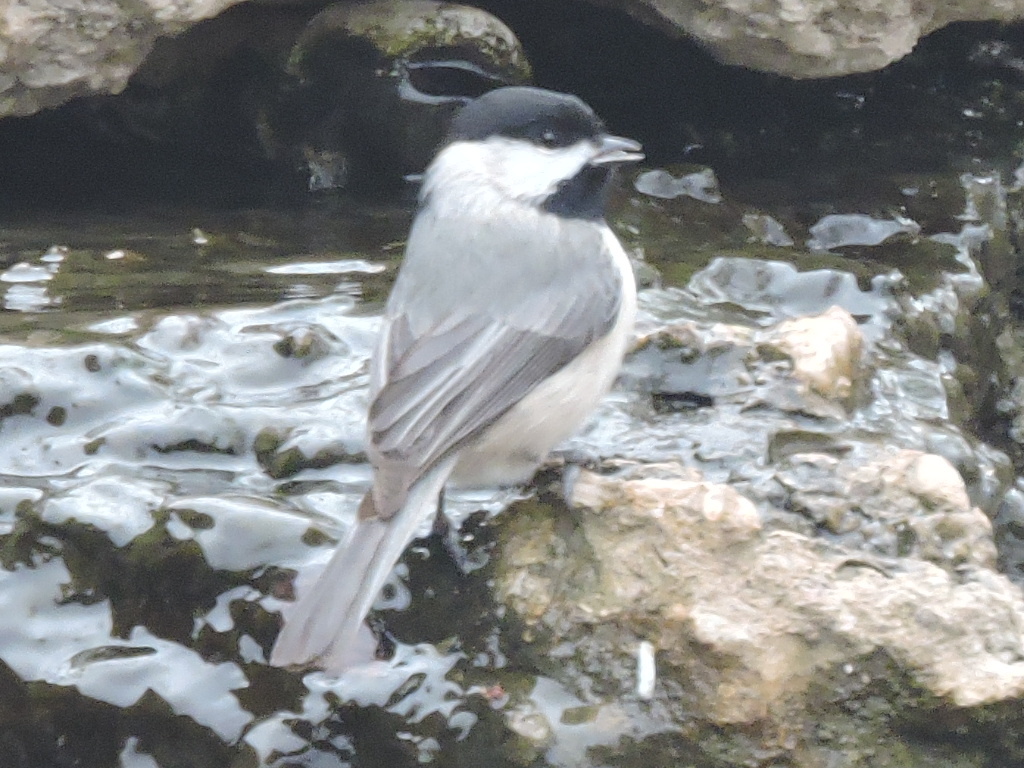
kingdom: Animalia
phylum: Chordata
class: Aves
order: Passeriformes
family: Paridae
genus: Poecile
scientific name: Poecile carolinensis
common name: Carolina chickadee
